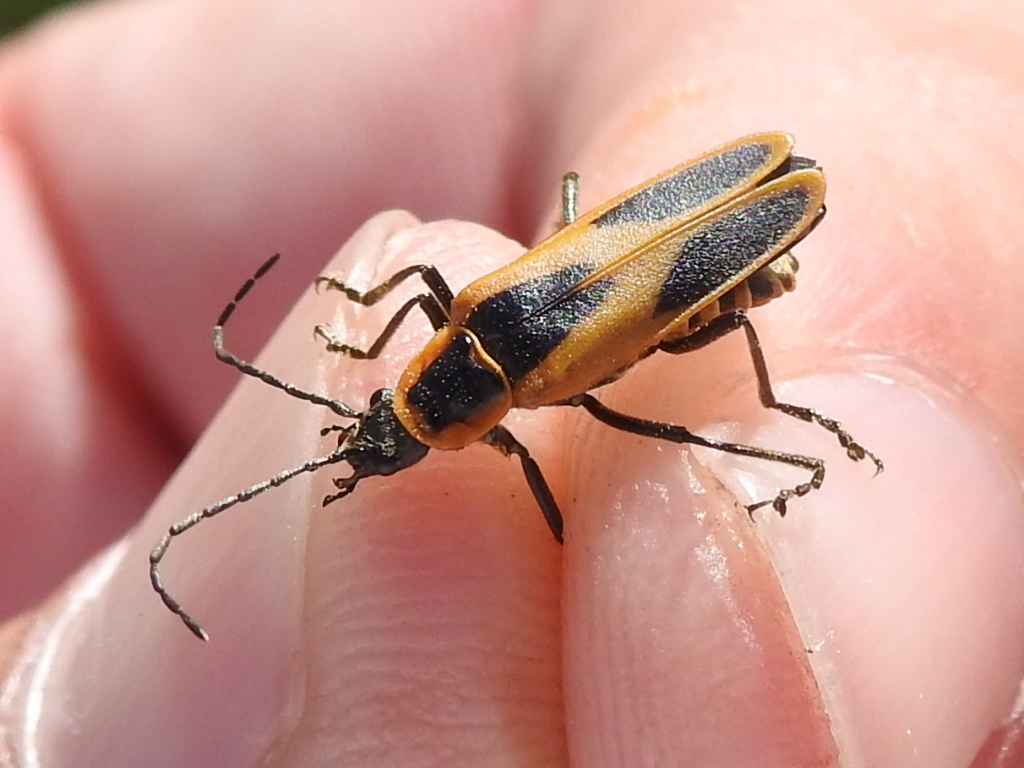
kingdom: Animalia
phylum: Arthropoda
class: Insecta
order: Coleoptera
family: Cantharidae
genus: Chauliognathus
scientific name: Chauliognathus scutellaris
